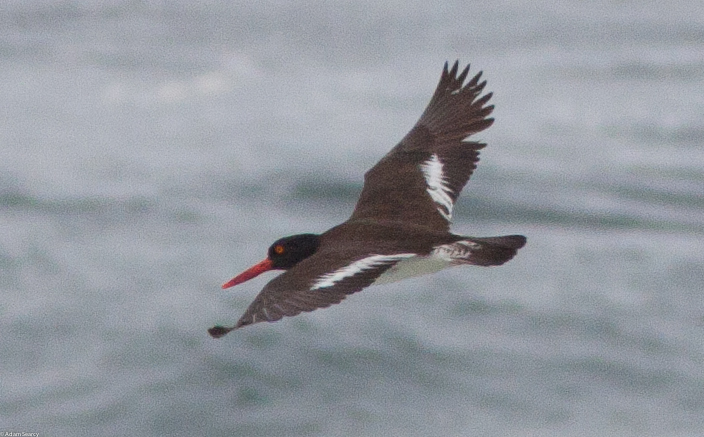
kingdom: Animalia
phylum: Chordata
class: Aves
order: Charadriiformes
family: Haematopodidae
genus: Haematopus
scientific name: Haematopus palliatus
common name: American oystercatcher
